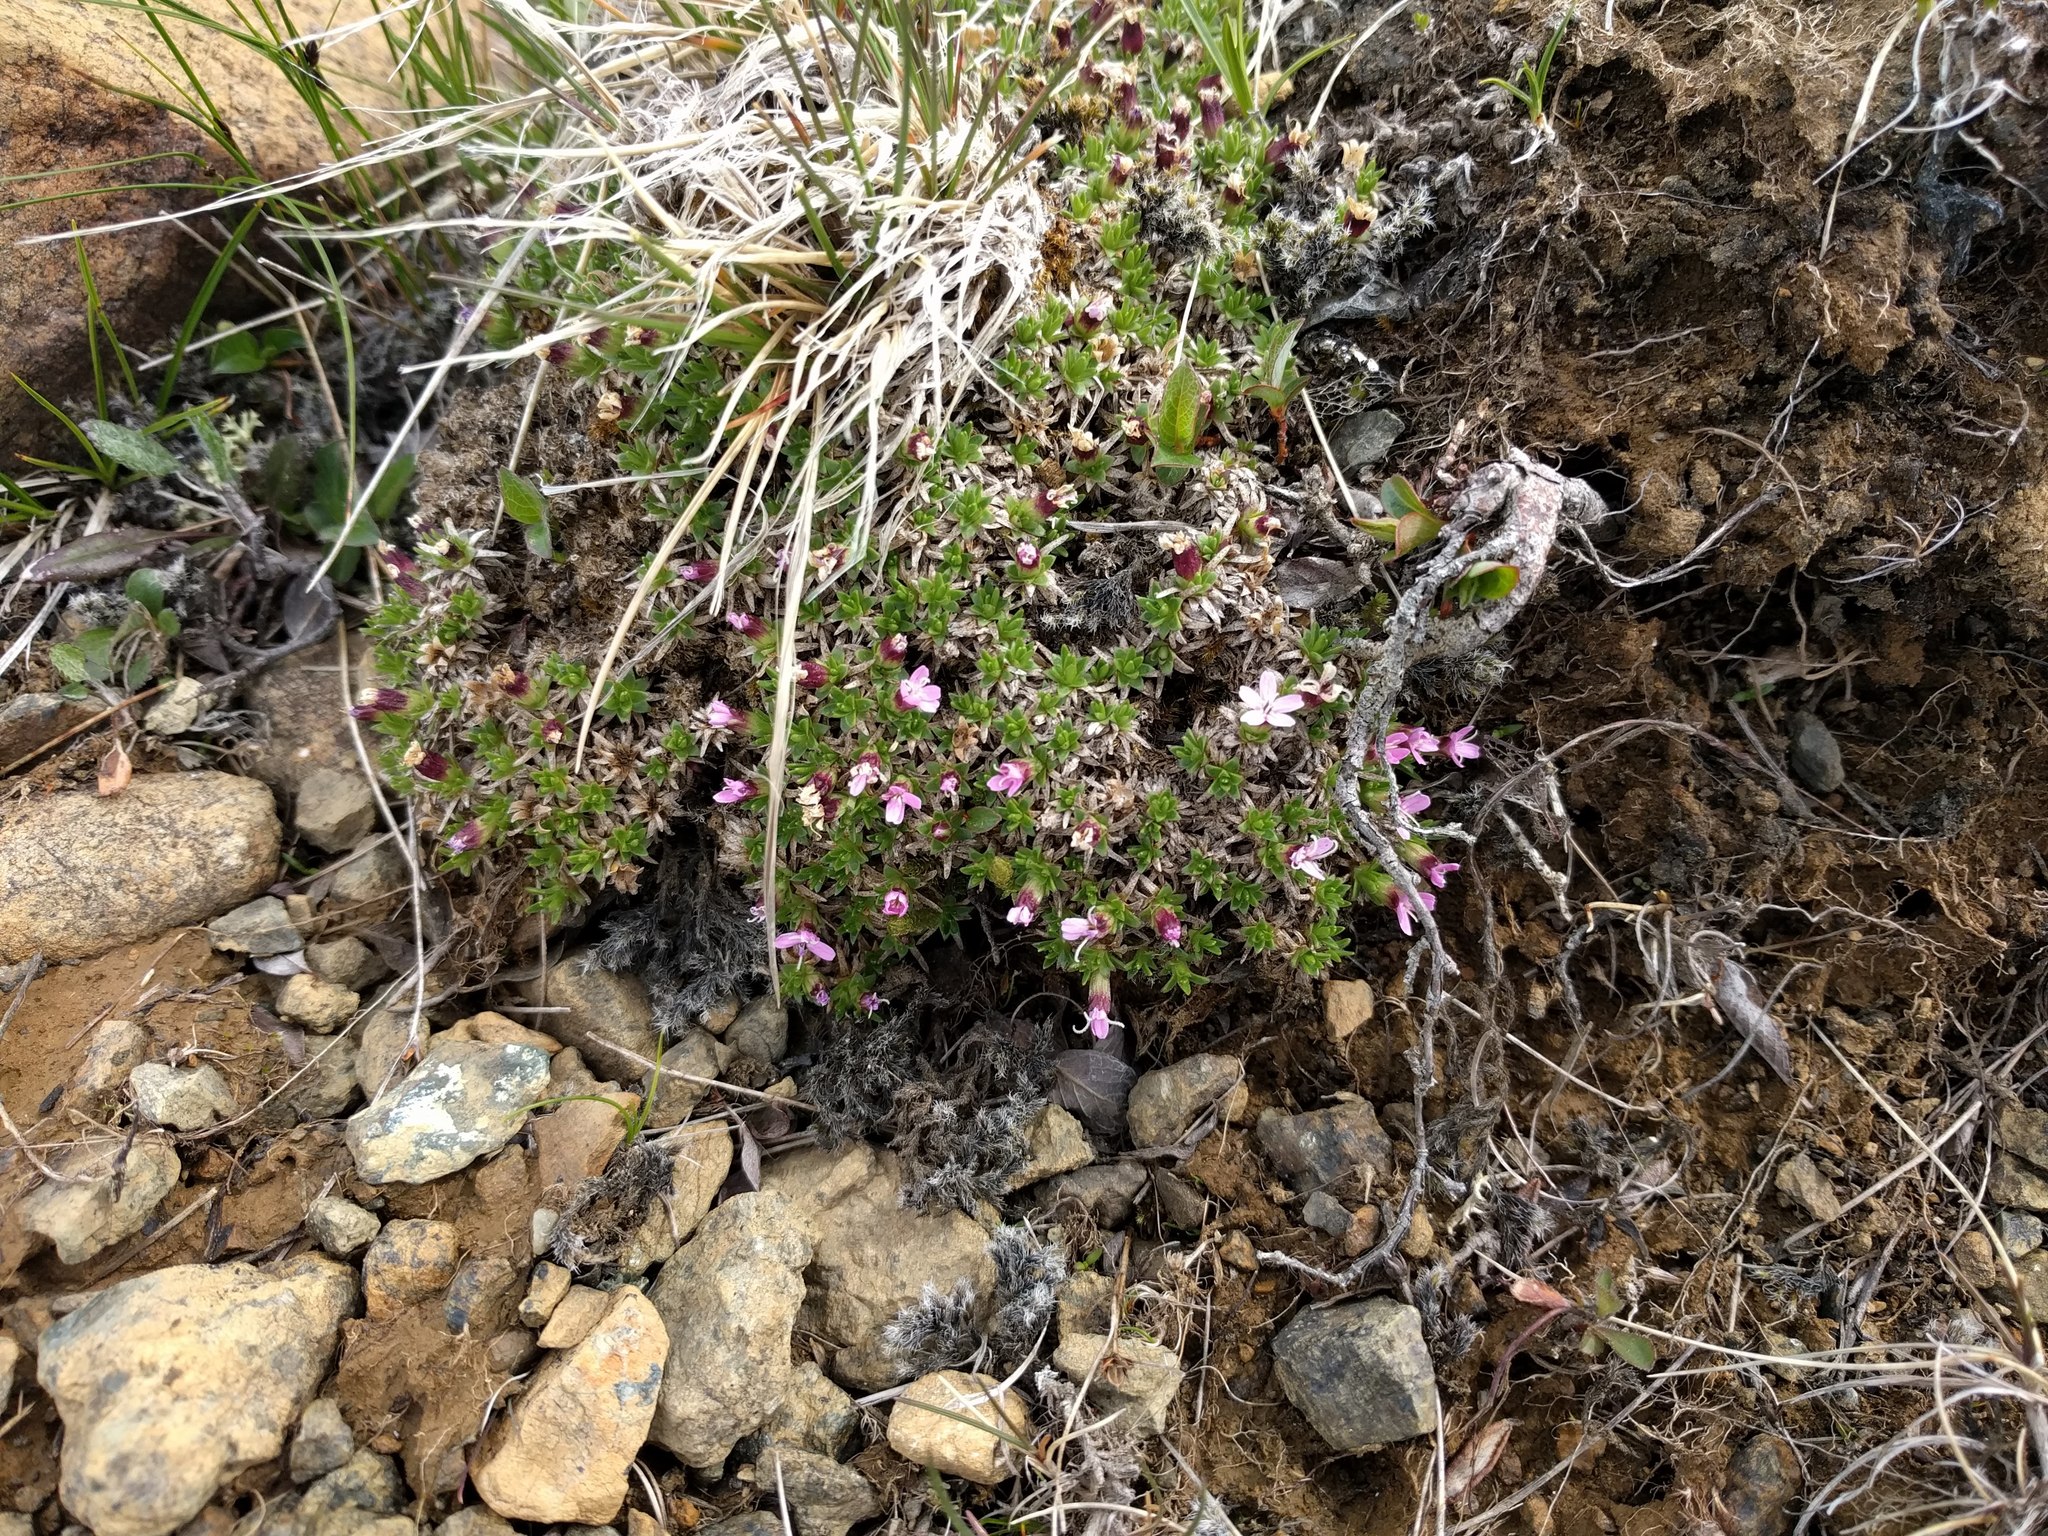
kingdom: Plantae
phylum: Tracheophyta
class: Magnoliopsida
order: Caryophyllales
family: Caryophyllaceae
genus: Silene
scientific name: Silene acaulis
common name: Moss campion
